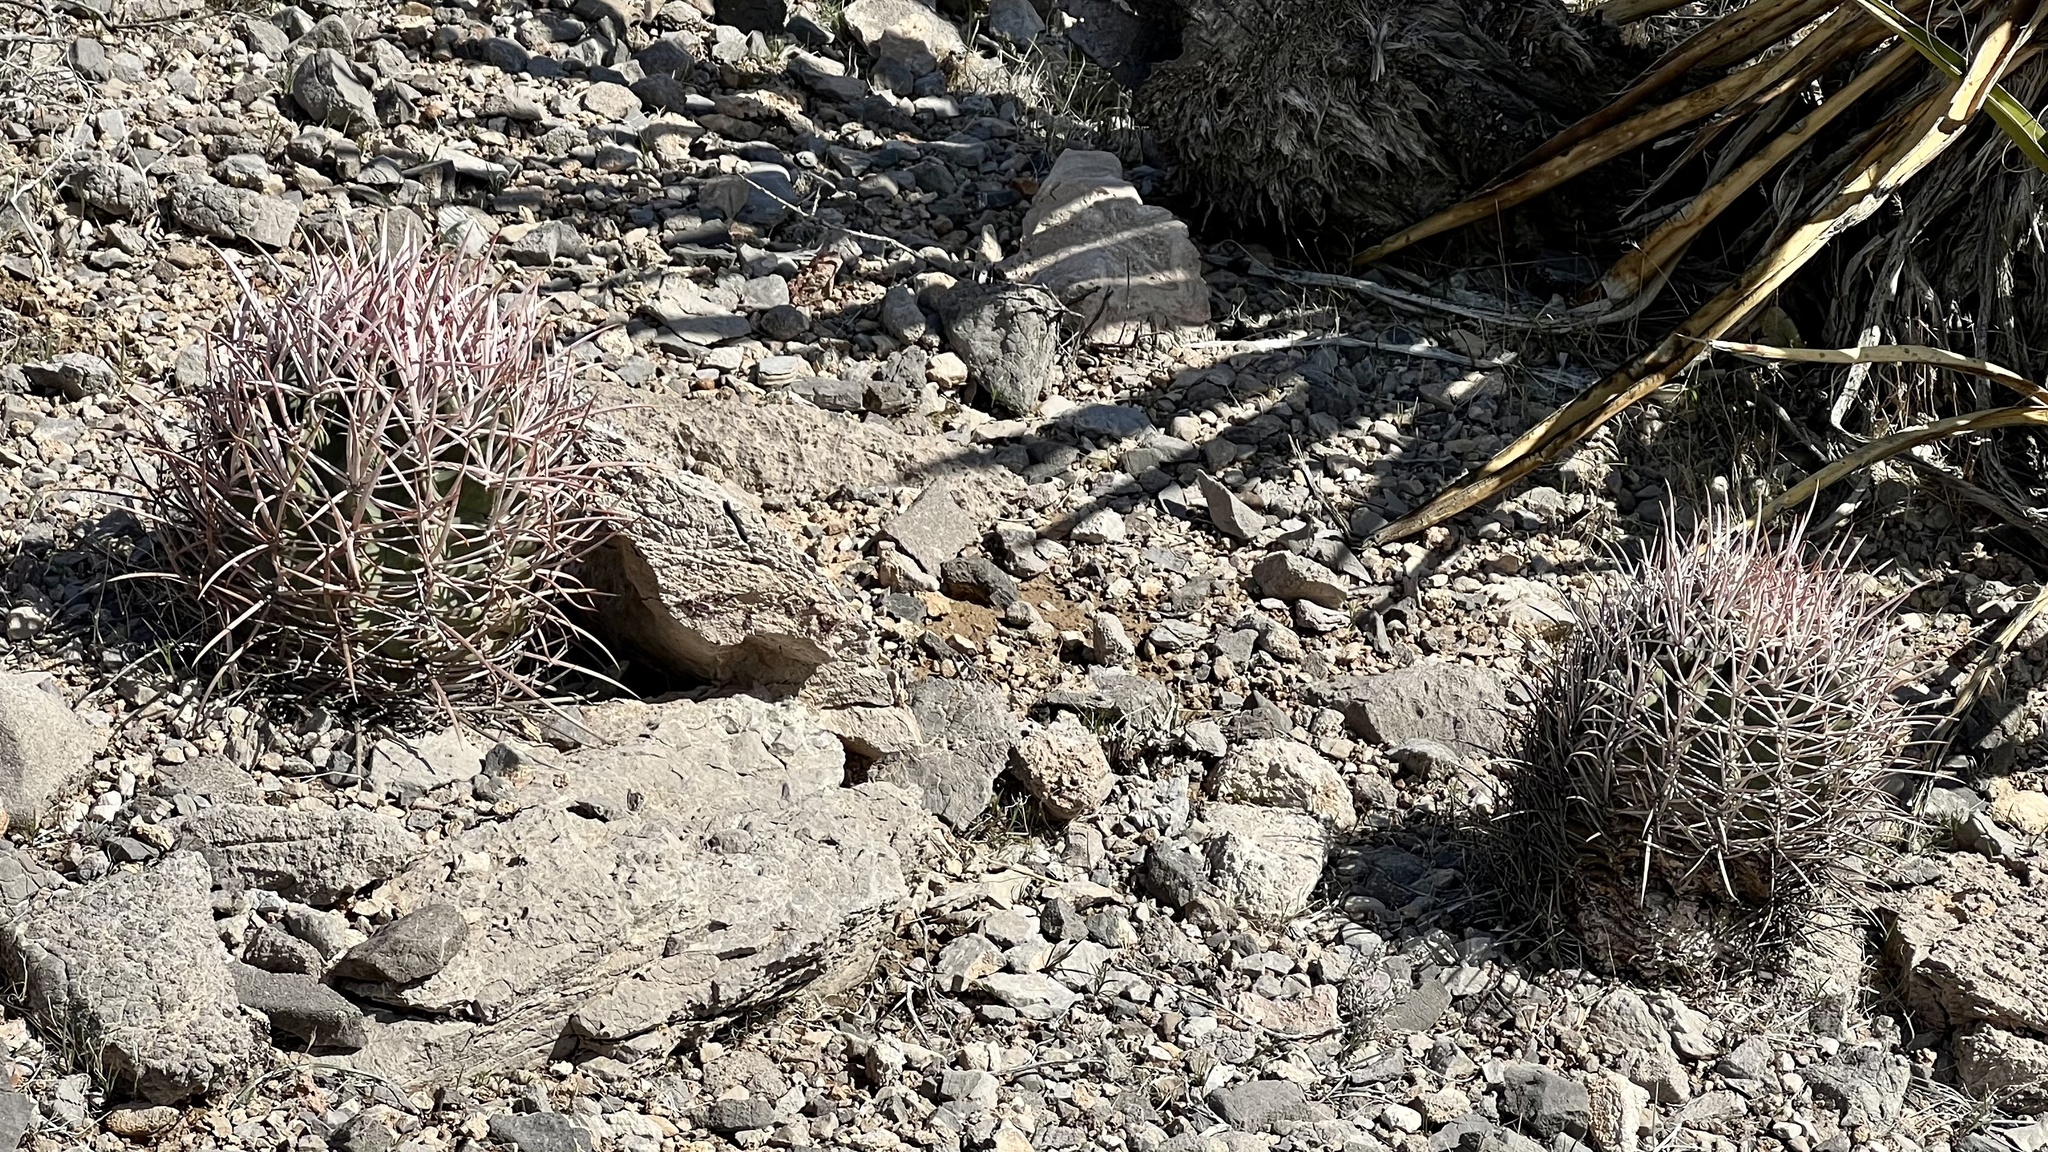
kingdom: Plantae
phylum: Tracheophyta
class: Magnoliopsida
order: Caryophyllales
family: Cactaceae
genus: Echinocactus
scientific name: Echinocactus polycephalus
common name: Cottontop cactus
